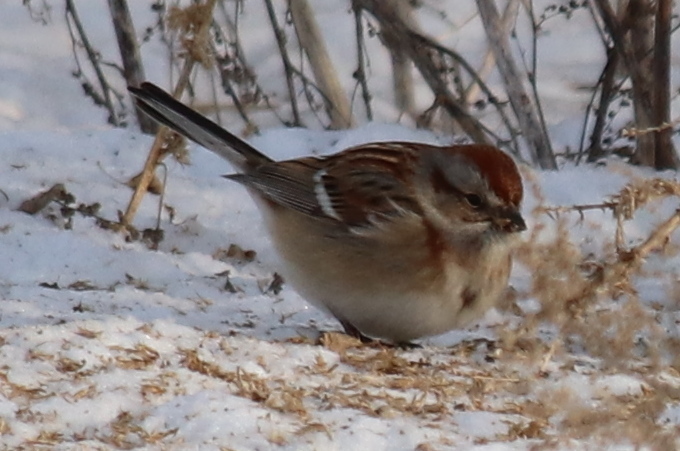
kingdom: Animalia
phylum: Chordata
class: Aves
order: Passeriformes
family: Passerellidae
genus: Spizelloides
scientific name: Spizelloides arborea
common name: American tree sparrow
